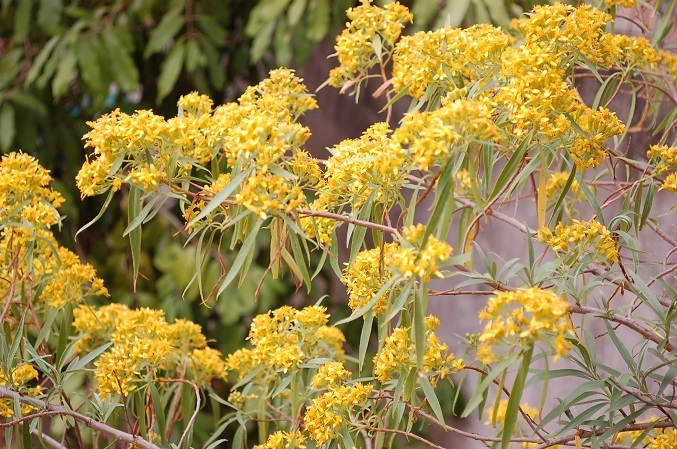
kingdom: Plantae
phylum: Tracheophyta
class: Magnoliopsida
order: Asterales
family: Asteraceae
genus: Barkleyanthus
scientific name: Barkleyanthus salicifolius
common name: Willow ragwort
